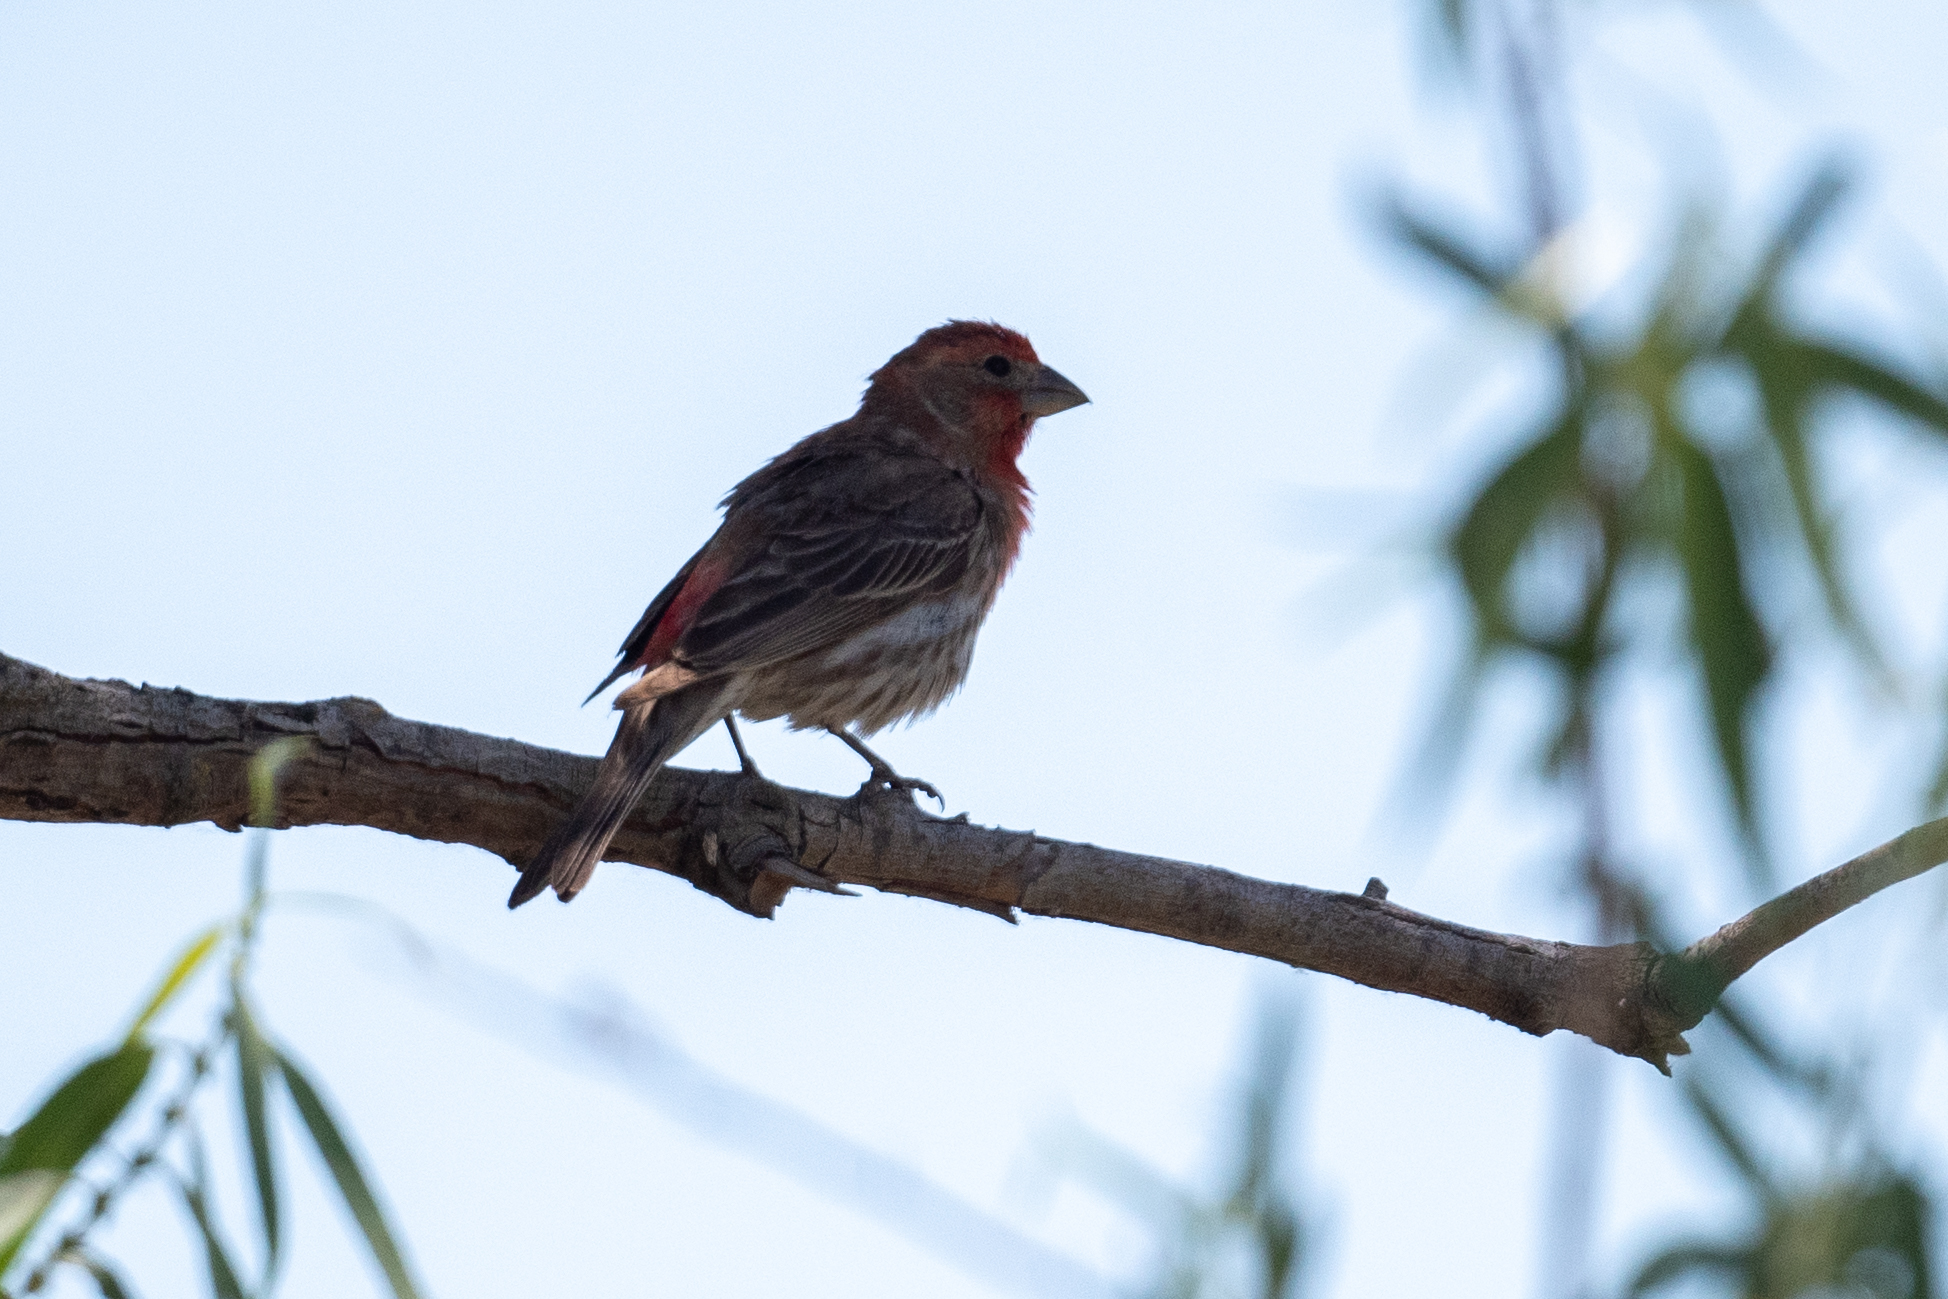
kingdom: Animalia
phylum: Chordata
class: Aves
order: Passeriformes
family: Fringillidae
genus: Haemorhous
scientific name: Haemorhous mexicanus
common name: House finch
